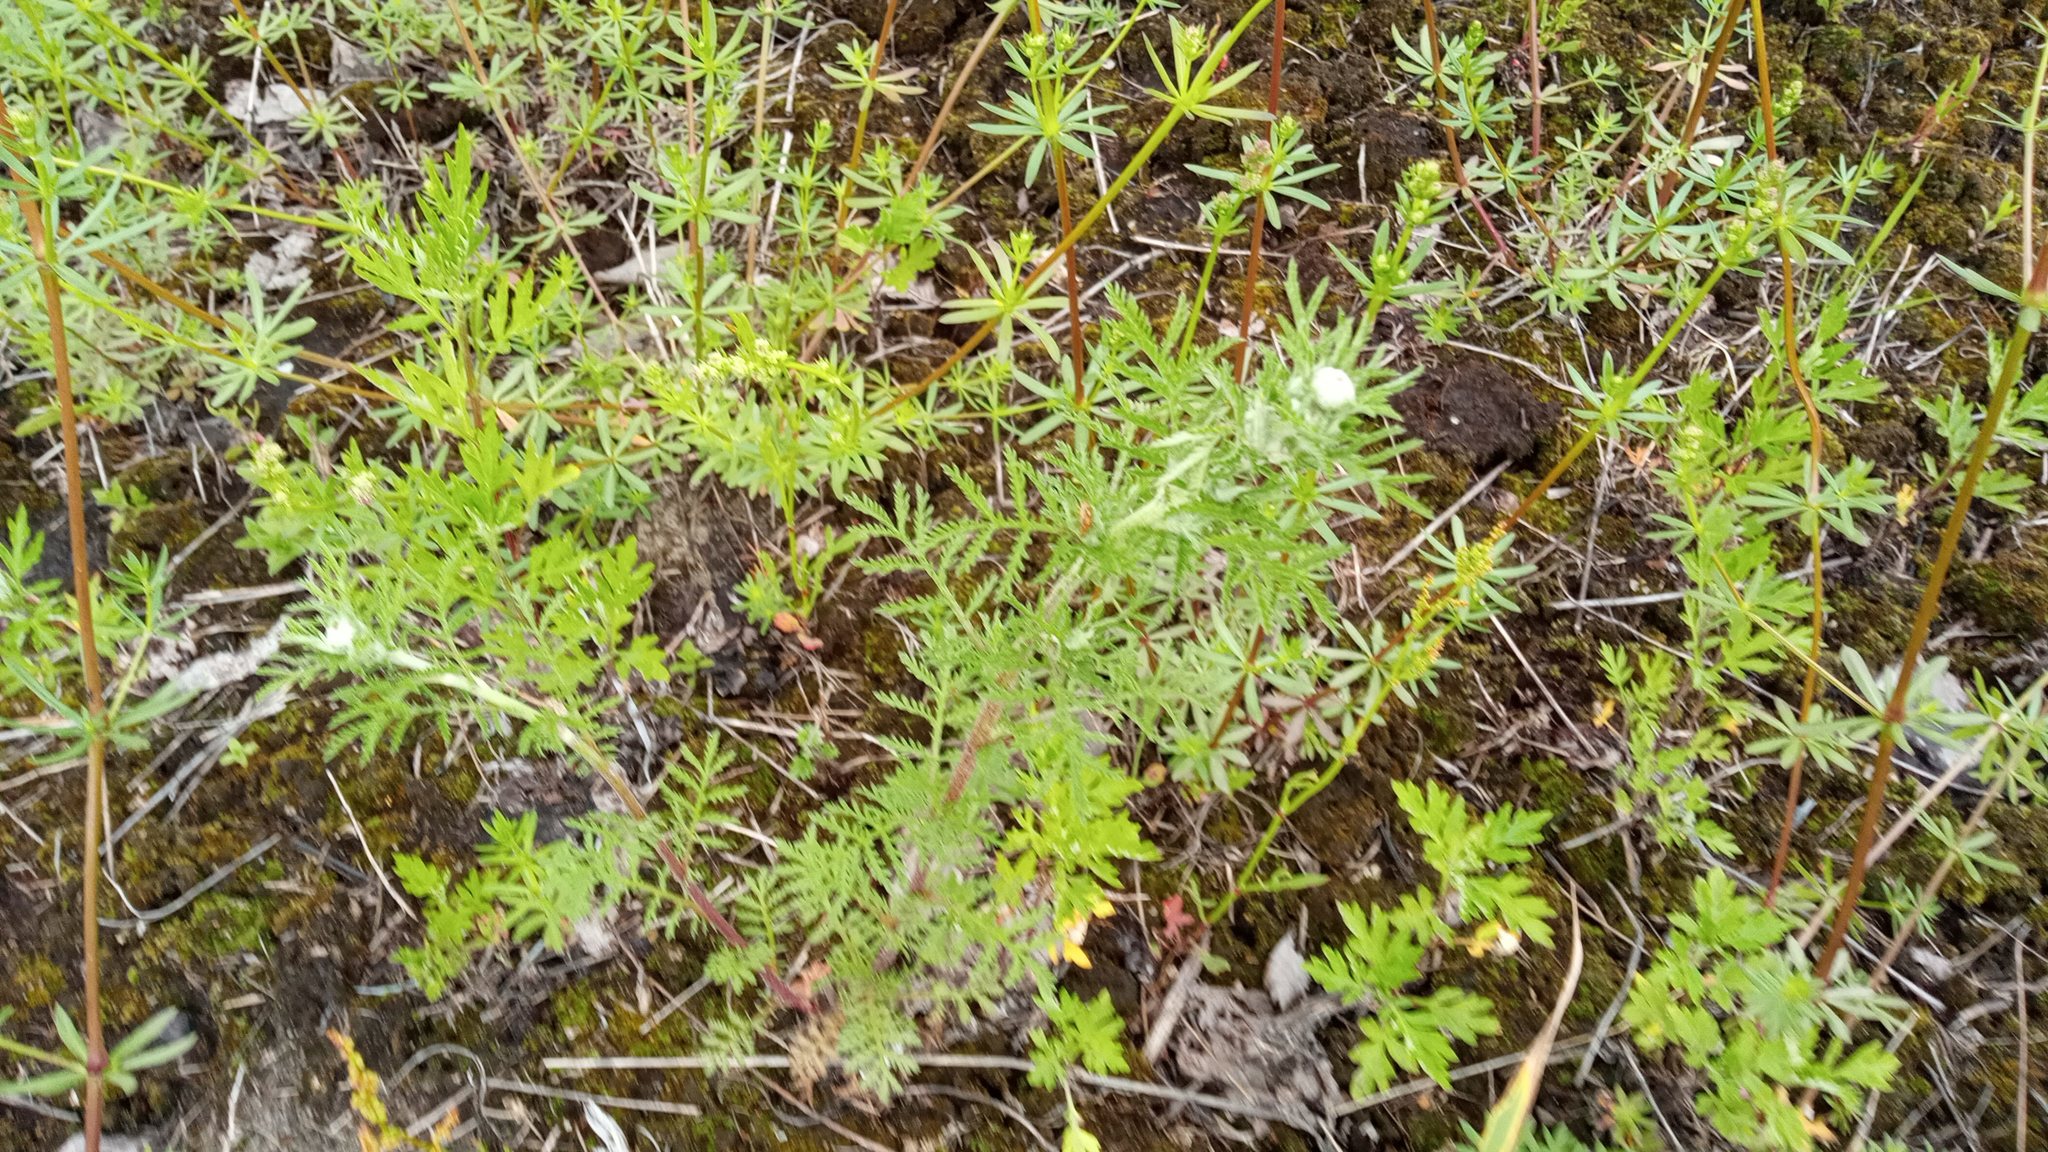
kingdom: Plantae
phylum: Tracheophyta
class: Magnoliopsida
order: Asterales
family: Asteraceae
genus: Cota
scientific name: Cota tinctoria
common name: Golden chamomile
